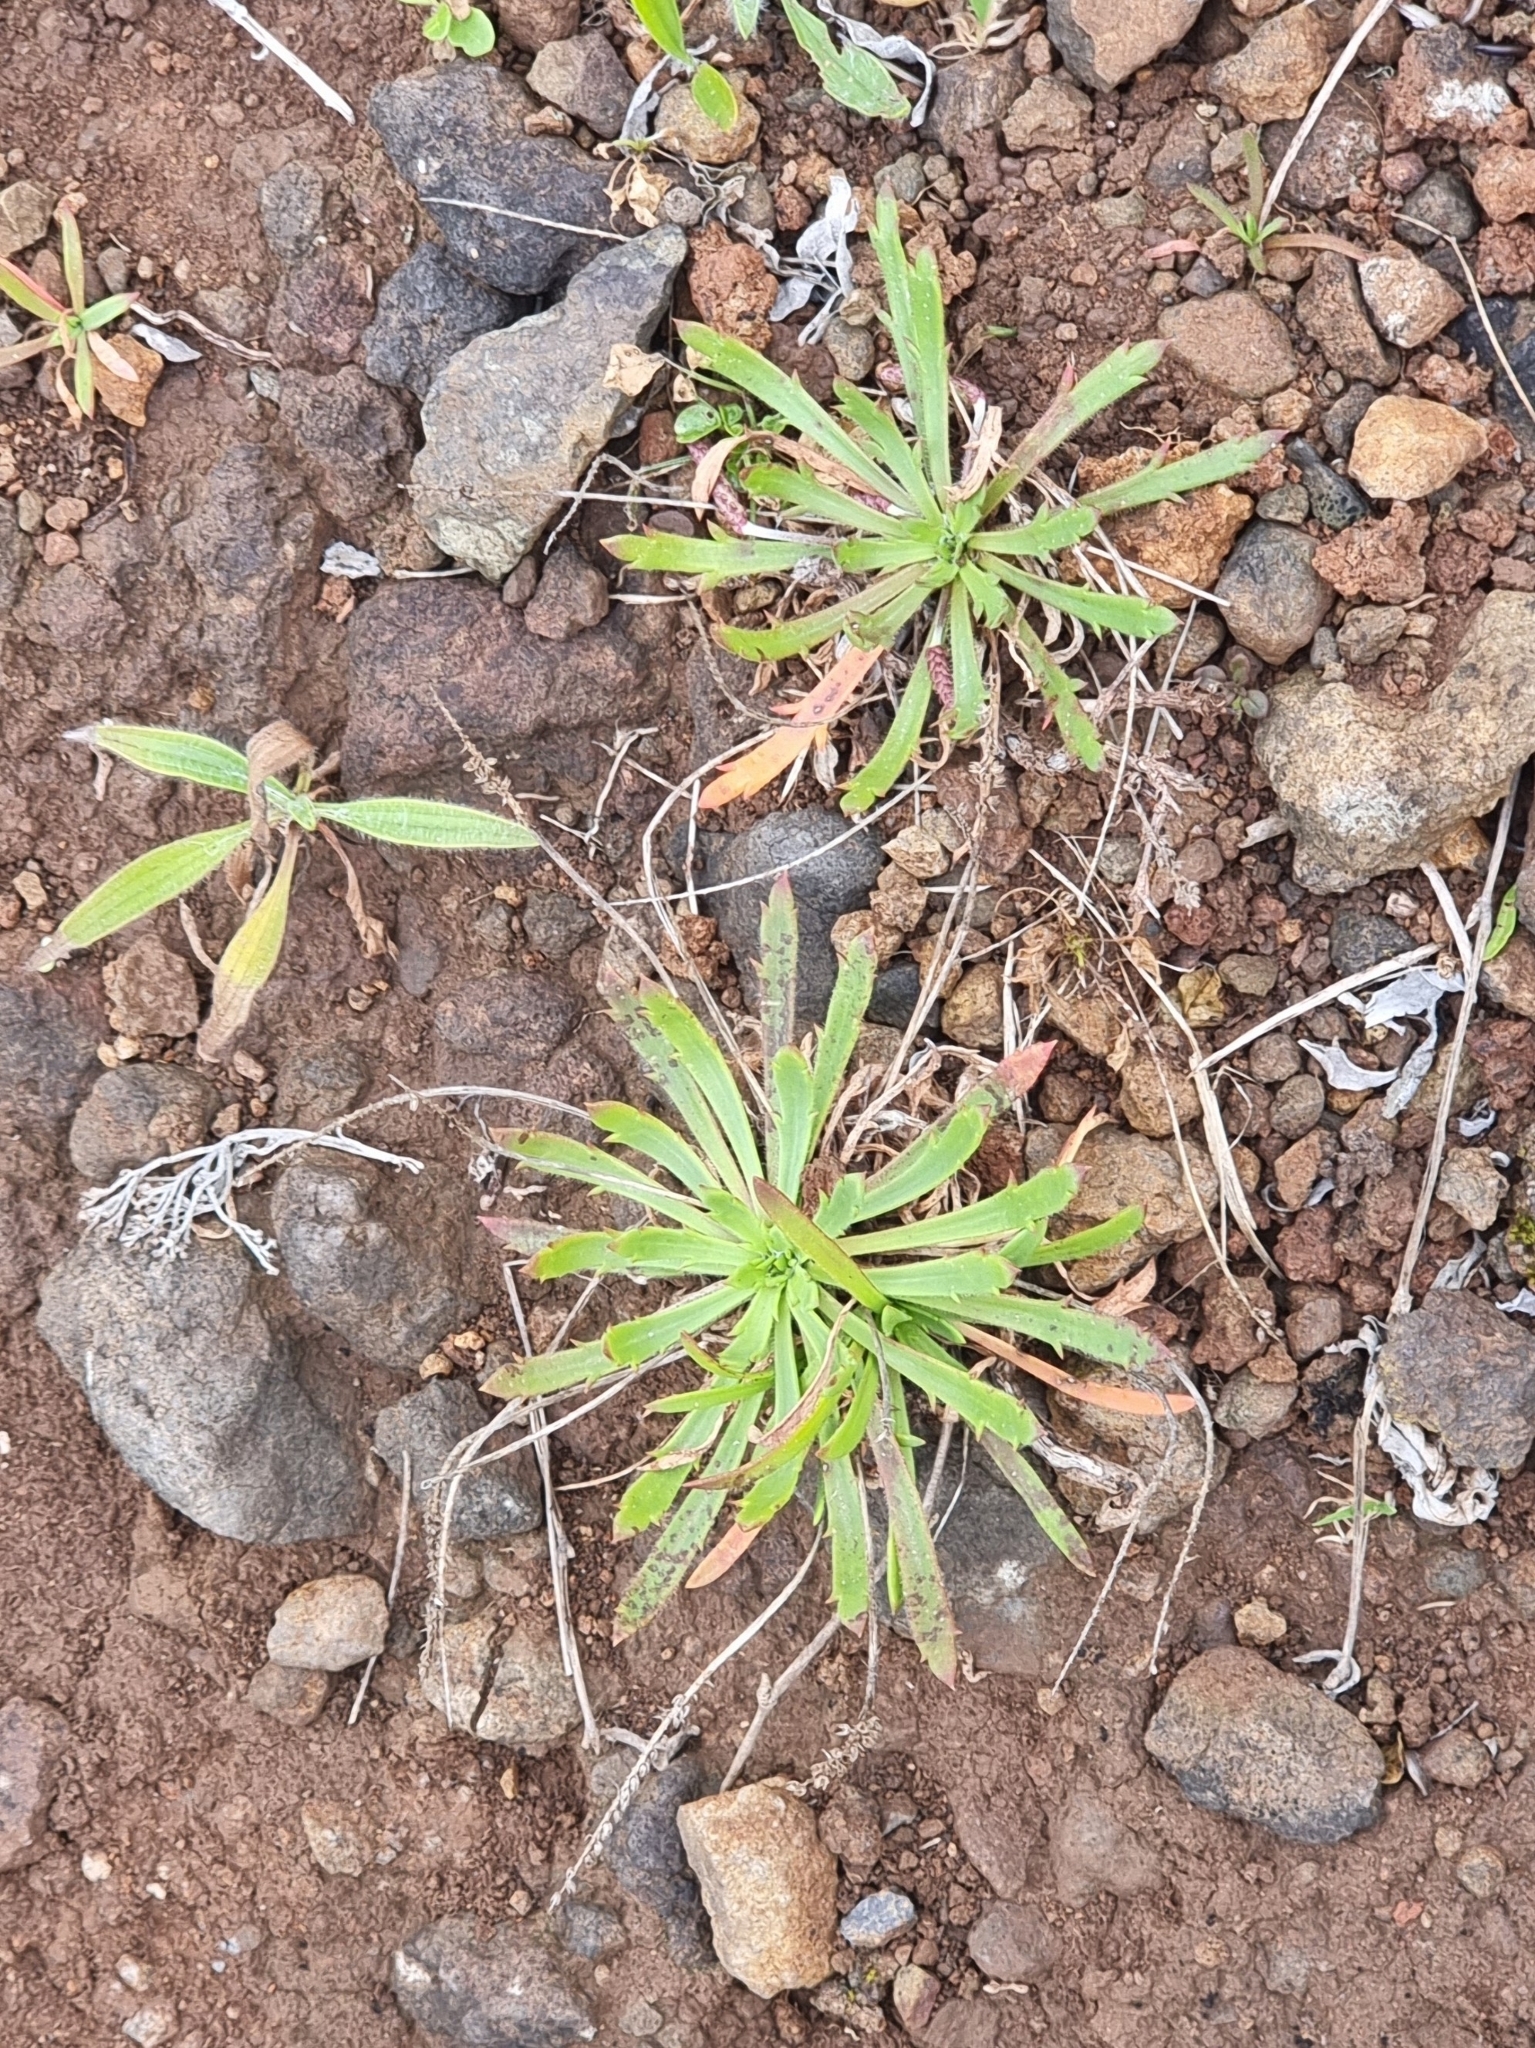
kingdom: Plantae
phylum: Tracheophyta
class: Magnoliopsida
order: Lamiales
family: Plantaginaceae
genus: Plantago
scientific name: Plantago coronopus
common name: Buck's-horn plantain
